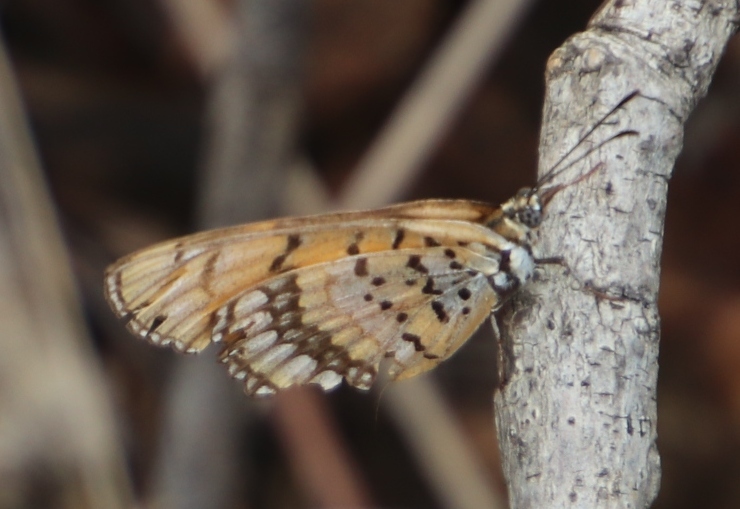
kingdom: Animalia
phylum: Arthropoda
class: Insecta
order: Lepidoptera
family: Nymphalidae
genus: Byblia
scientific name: Byblia ilithyia
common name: Spotted joker
